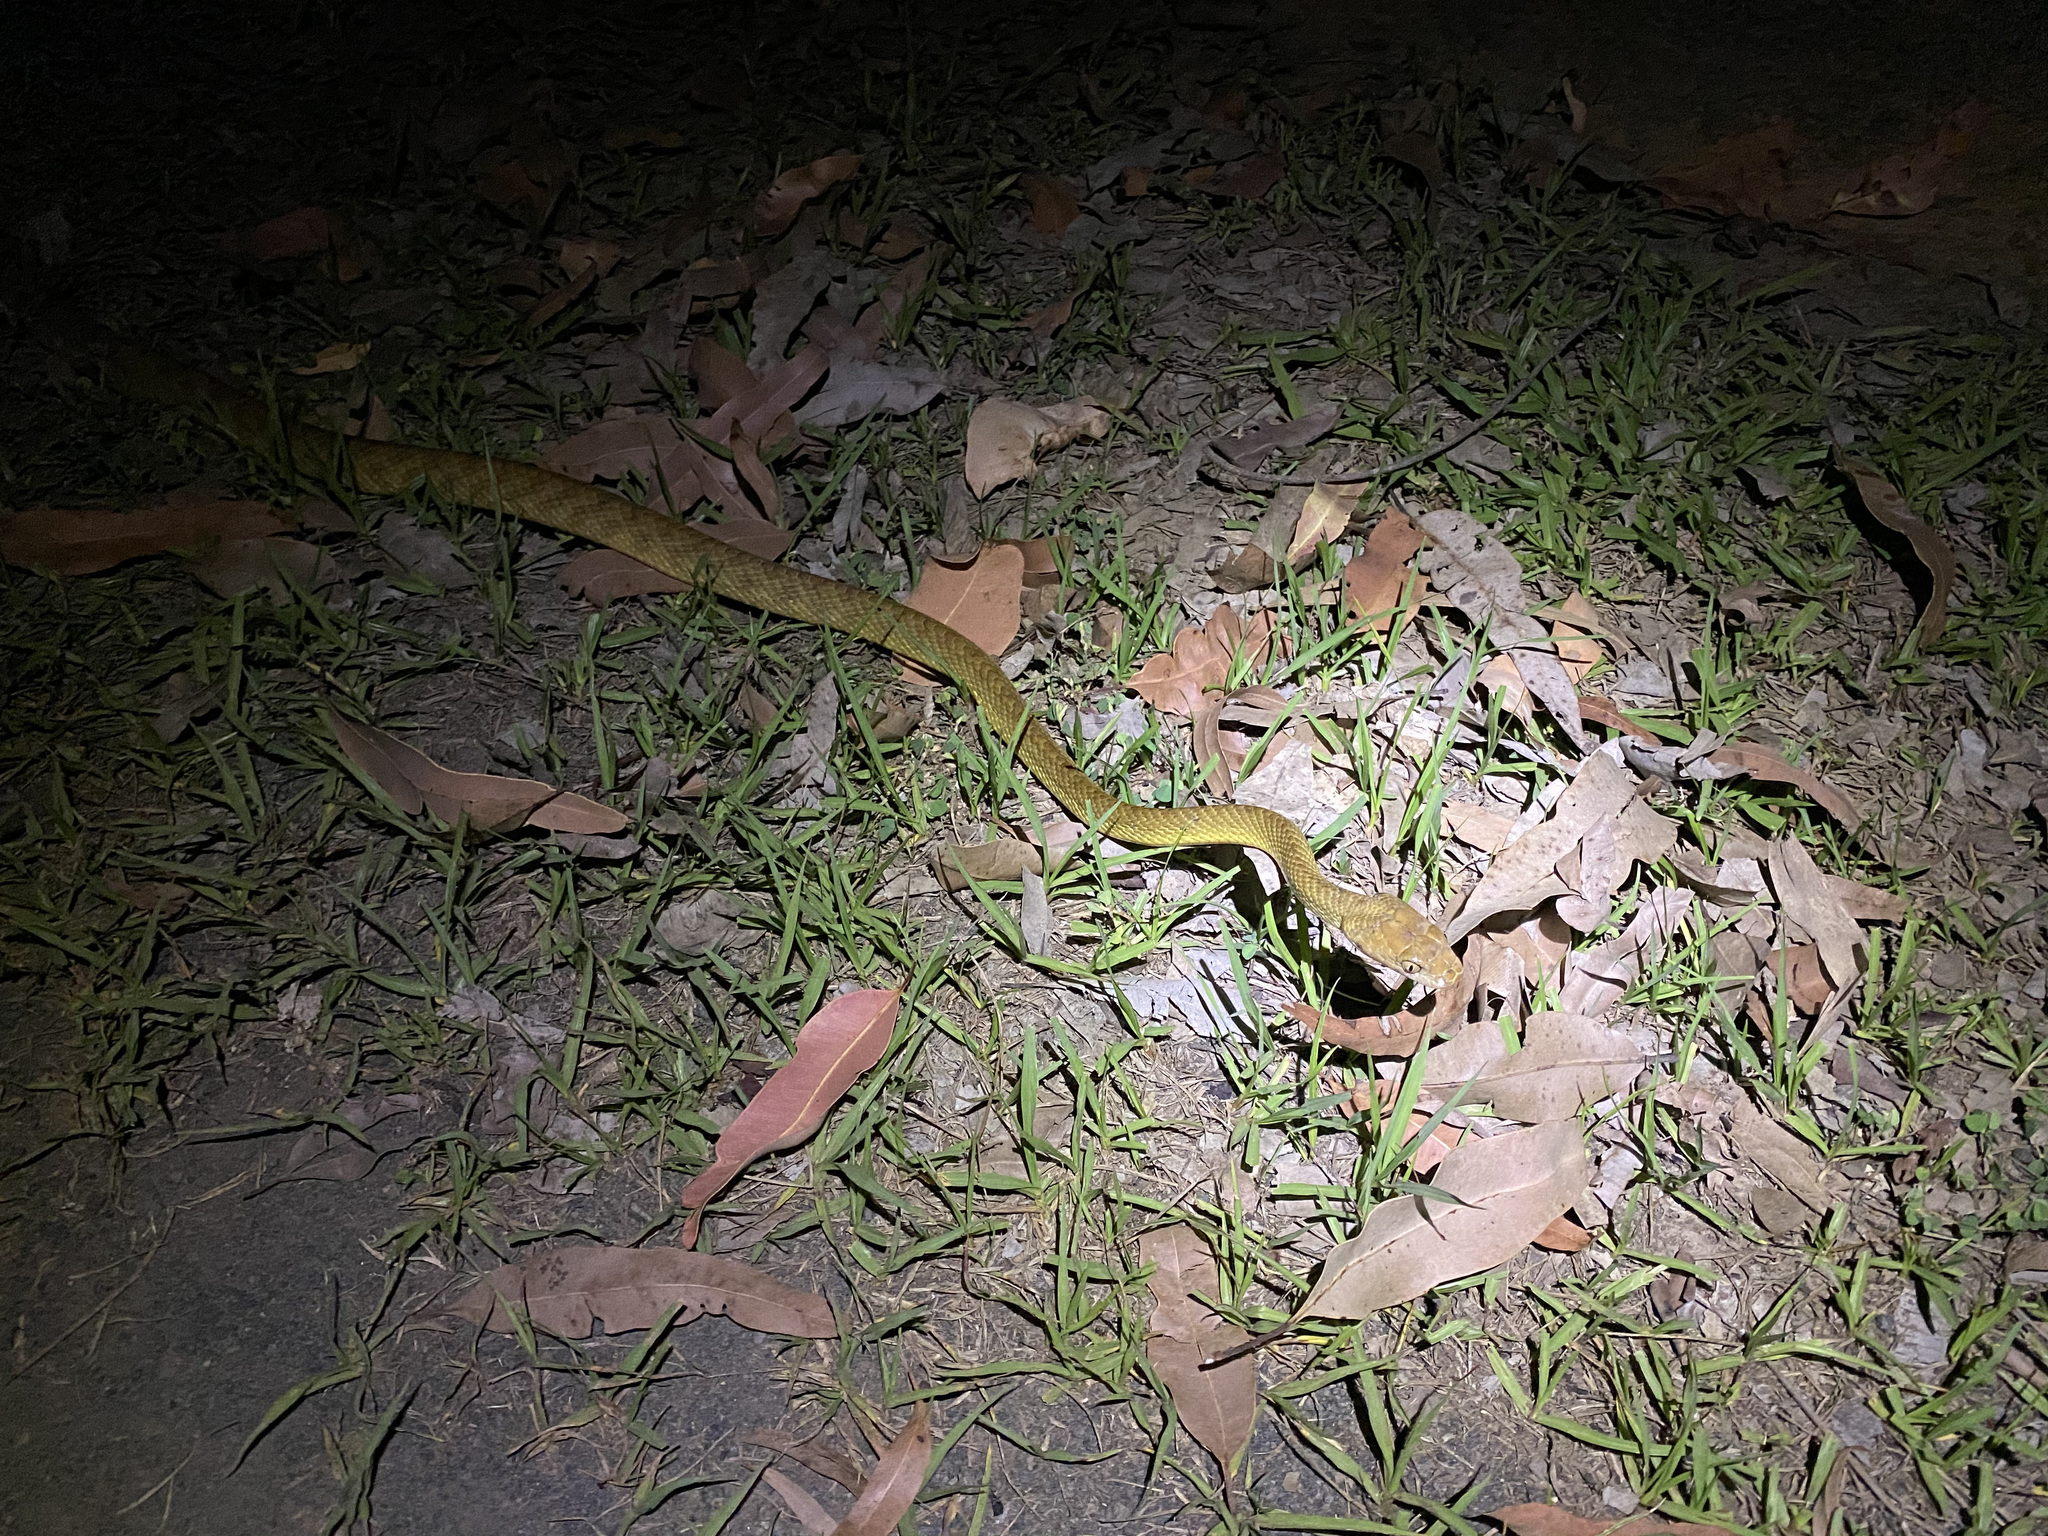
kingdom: Animalia
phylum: Chordata
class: Squamata
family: Colubridae
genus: Boiga
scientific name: Boiga irregularis
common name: Brown tree snake
